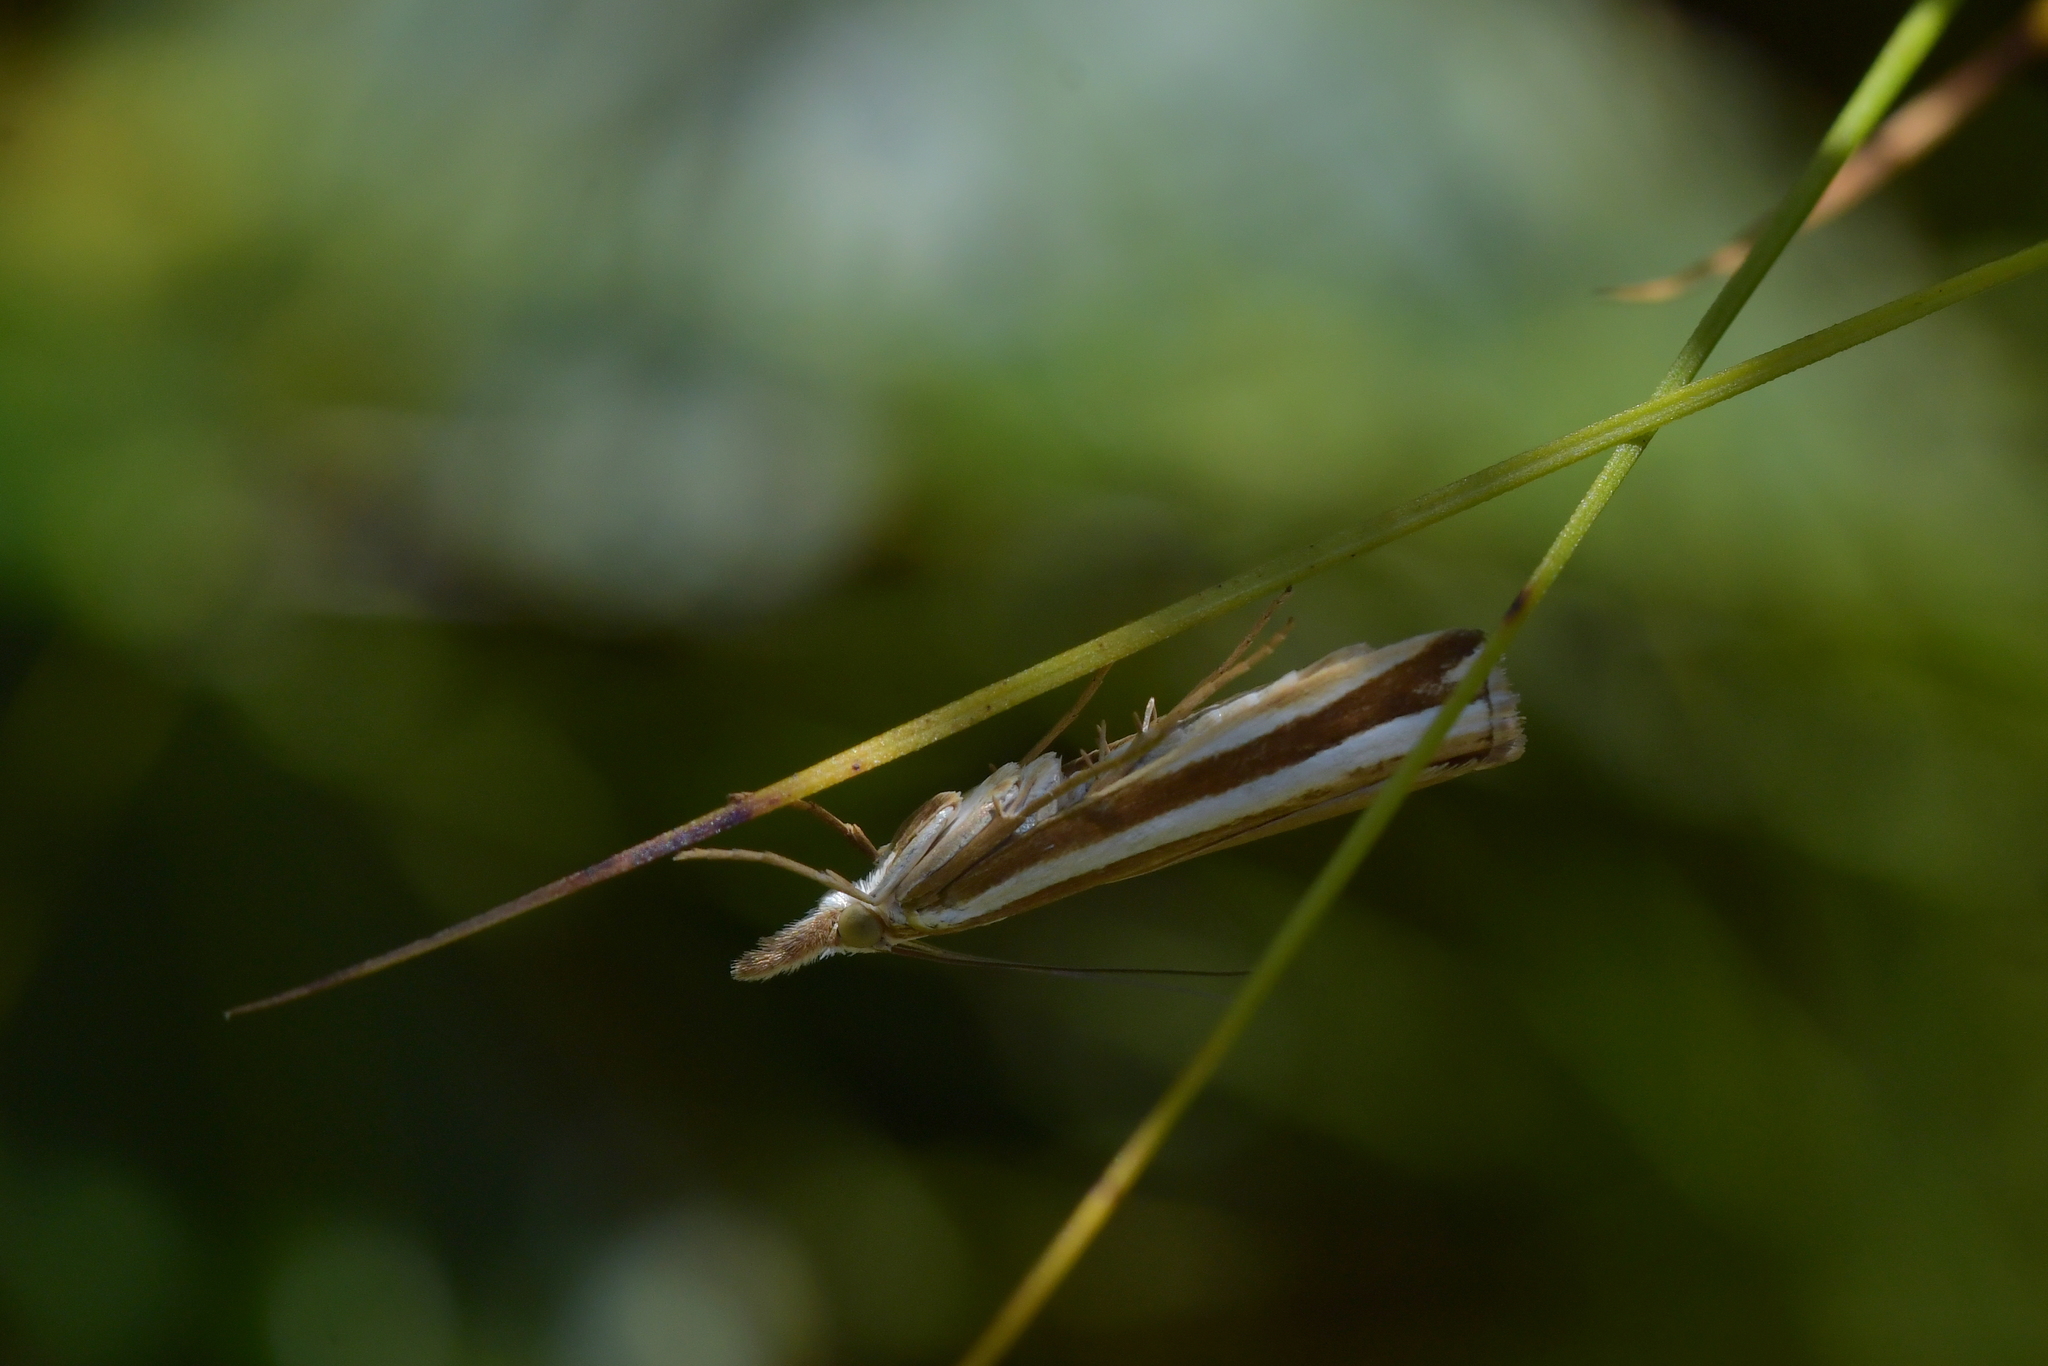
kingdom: Animalia
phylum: Arthropoda
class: Insecta
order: Lepidoptera
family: Crambidae
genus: Orocrambus
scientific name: Orocrambus apicellus
